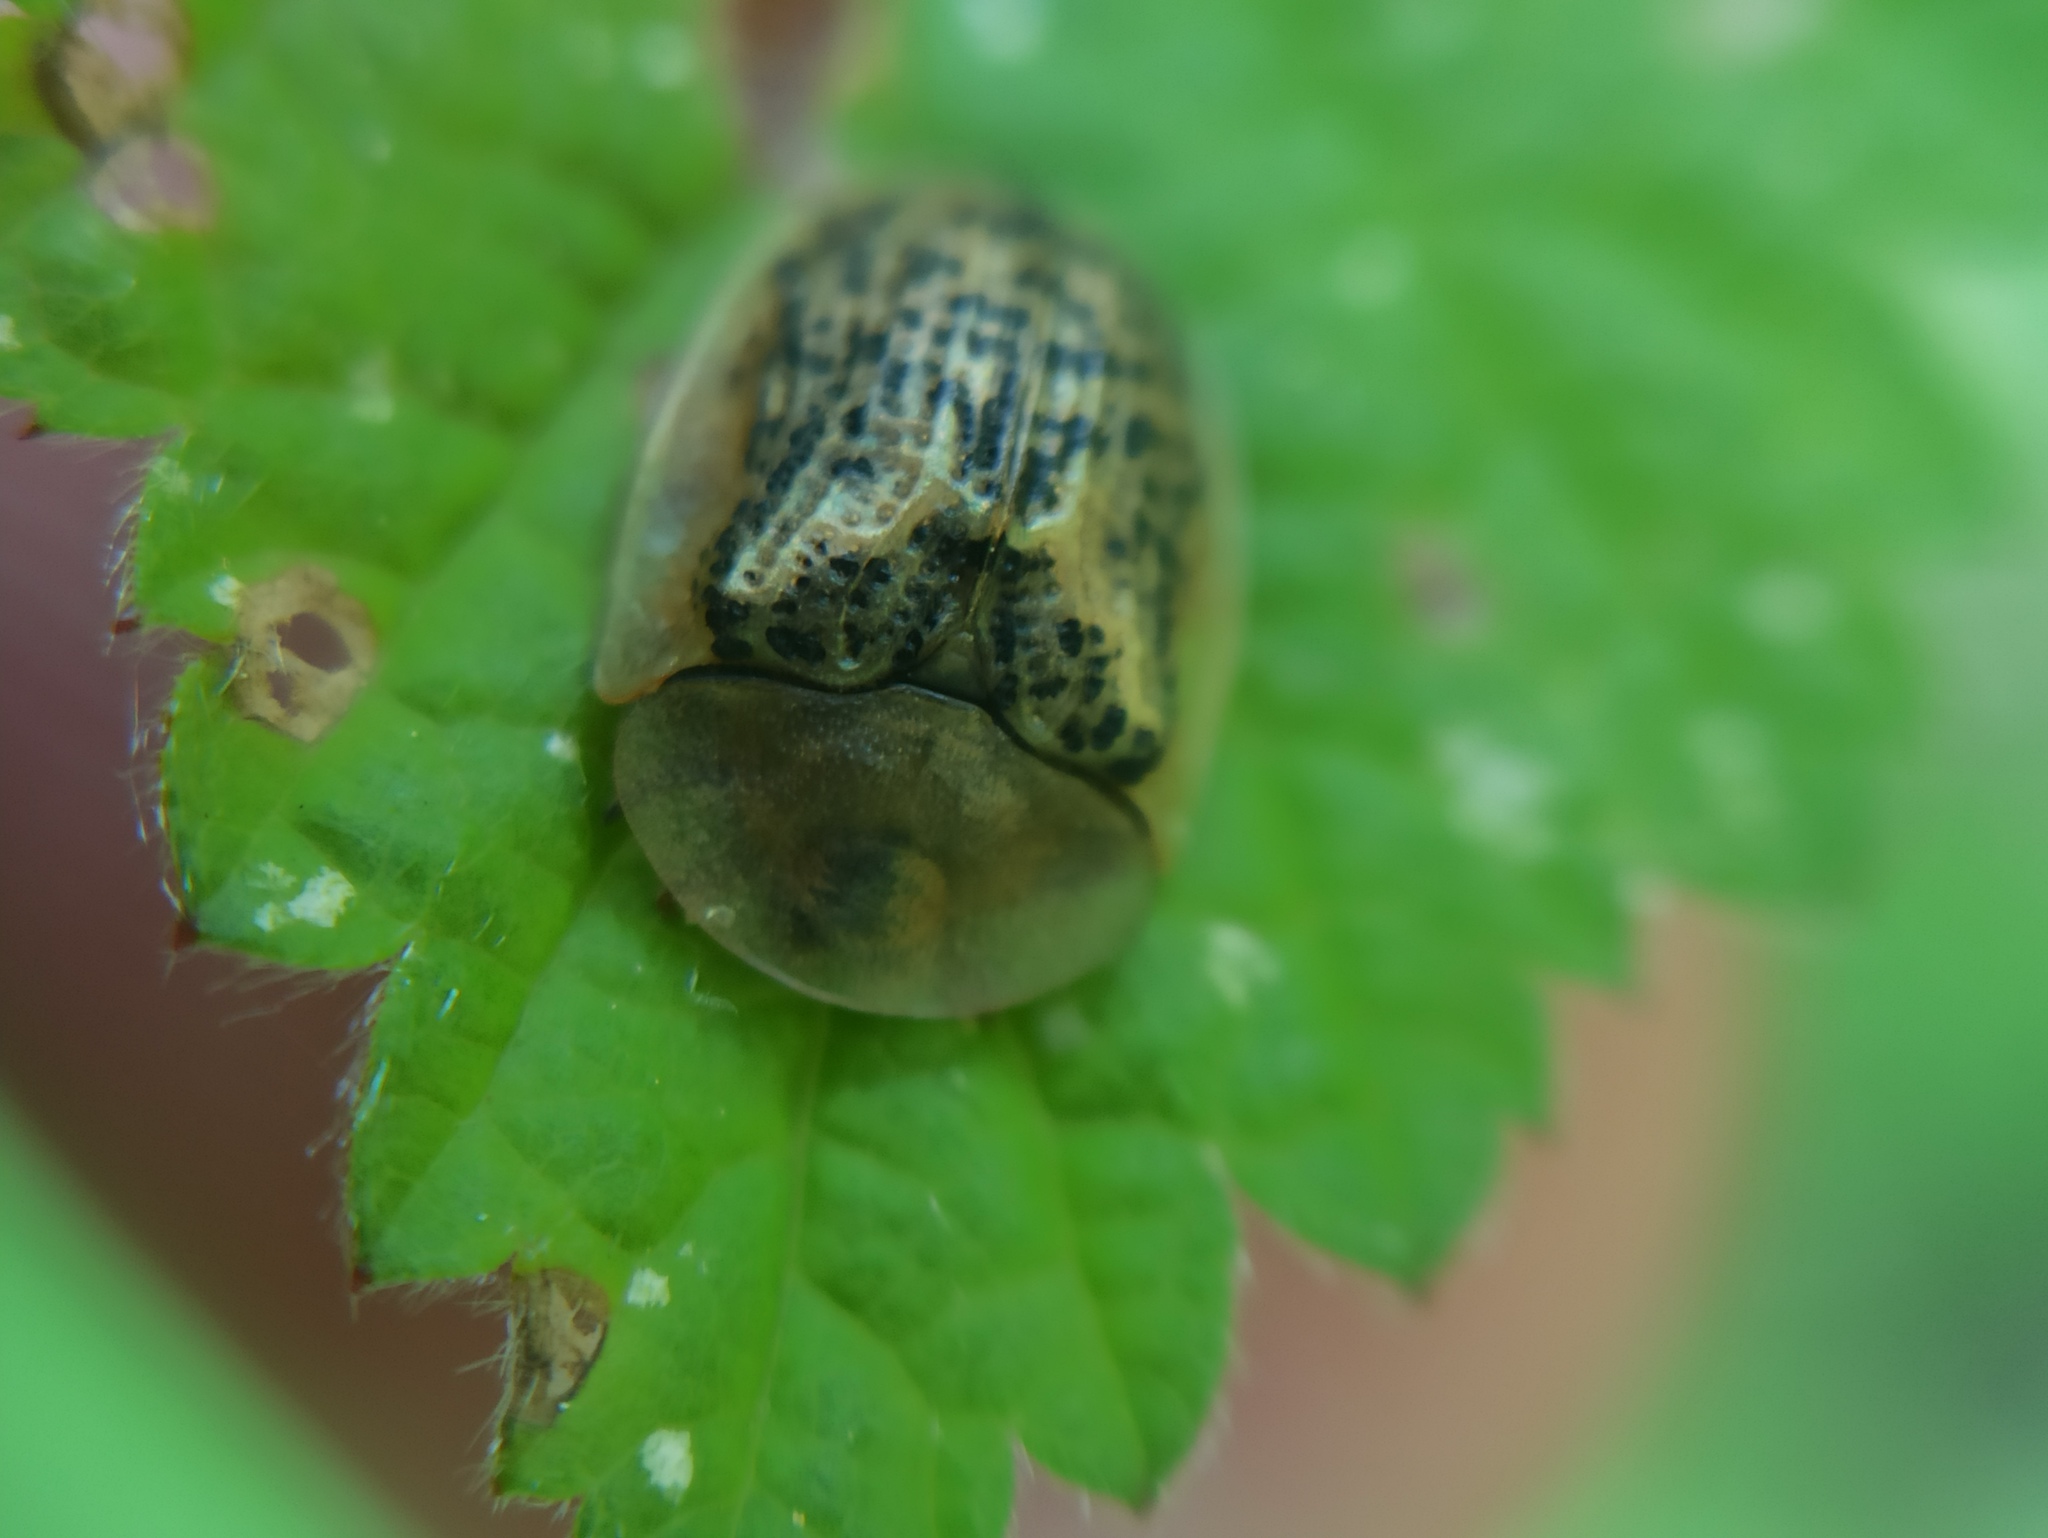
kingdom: Animalia
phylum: Arthropoda
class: Insecta
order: Coleoptera
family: Chrysomelidae
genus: Cassida
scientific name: Cassida nebulosa
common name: Beet tortoise beetle
